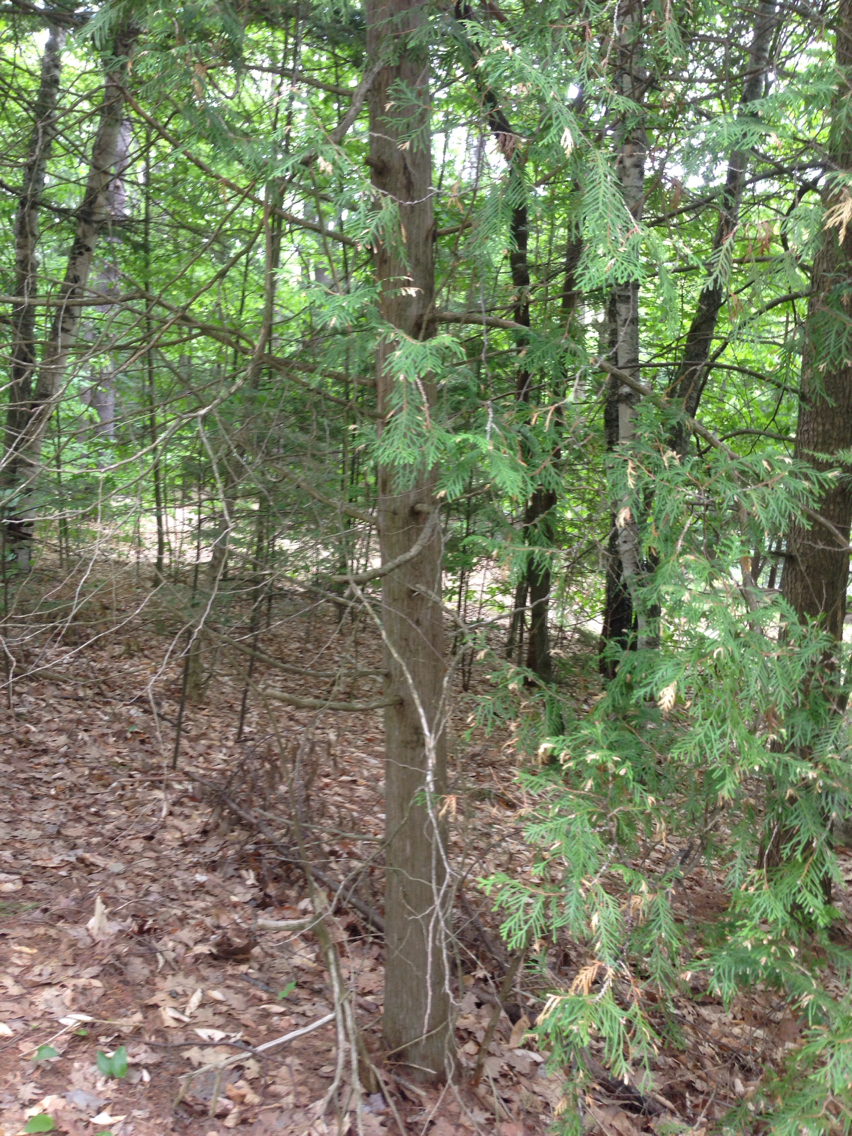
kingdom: Plantae
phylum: Tracheophyta
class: Pinopsida
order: Pinales
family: Cupressaceae
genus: Thuja
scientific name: Thuja occidentalis
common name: Northern white-cedar
